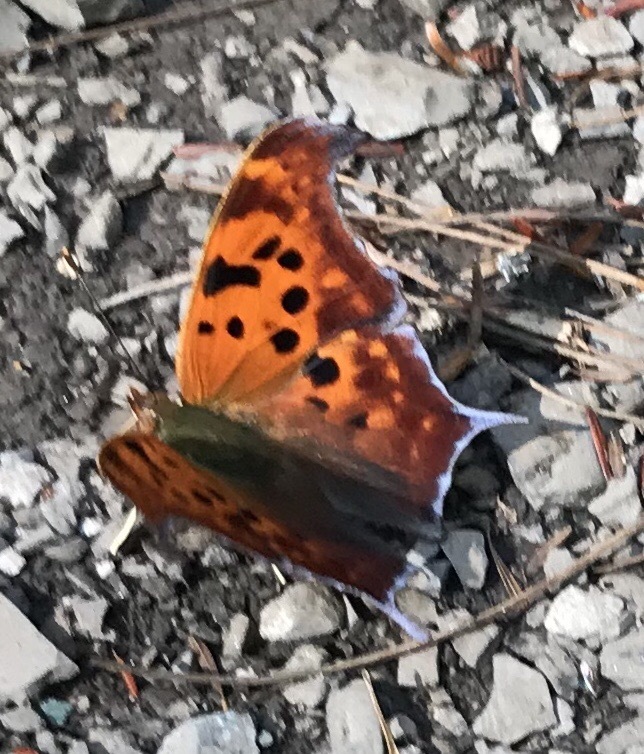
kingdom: Animalia
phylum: Arthropoda
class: Insecta
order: Lepidoptera
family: Nymphalidae
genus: Polygonia
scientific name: Polygonia interrogationis
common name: Question mark
